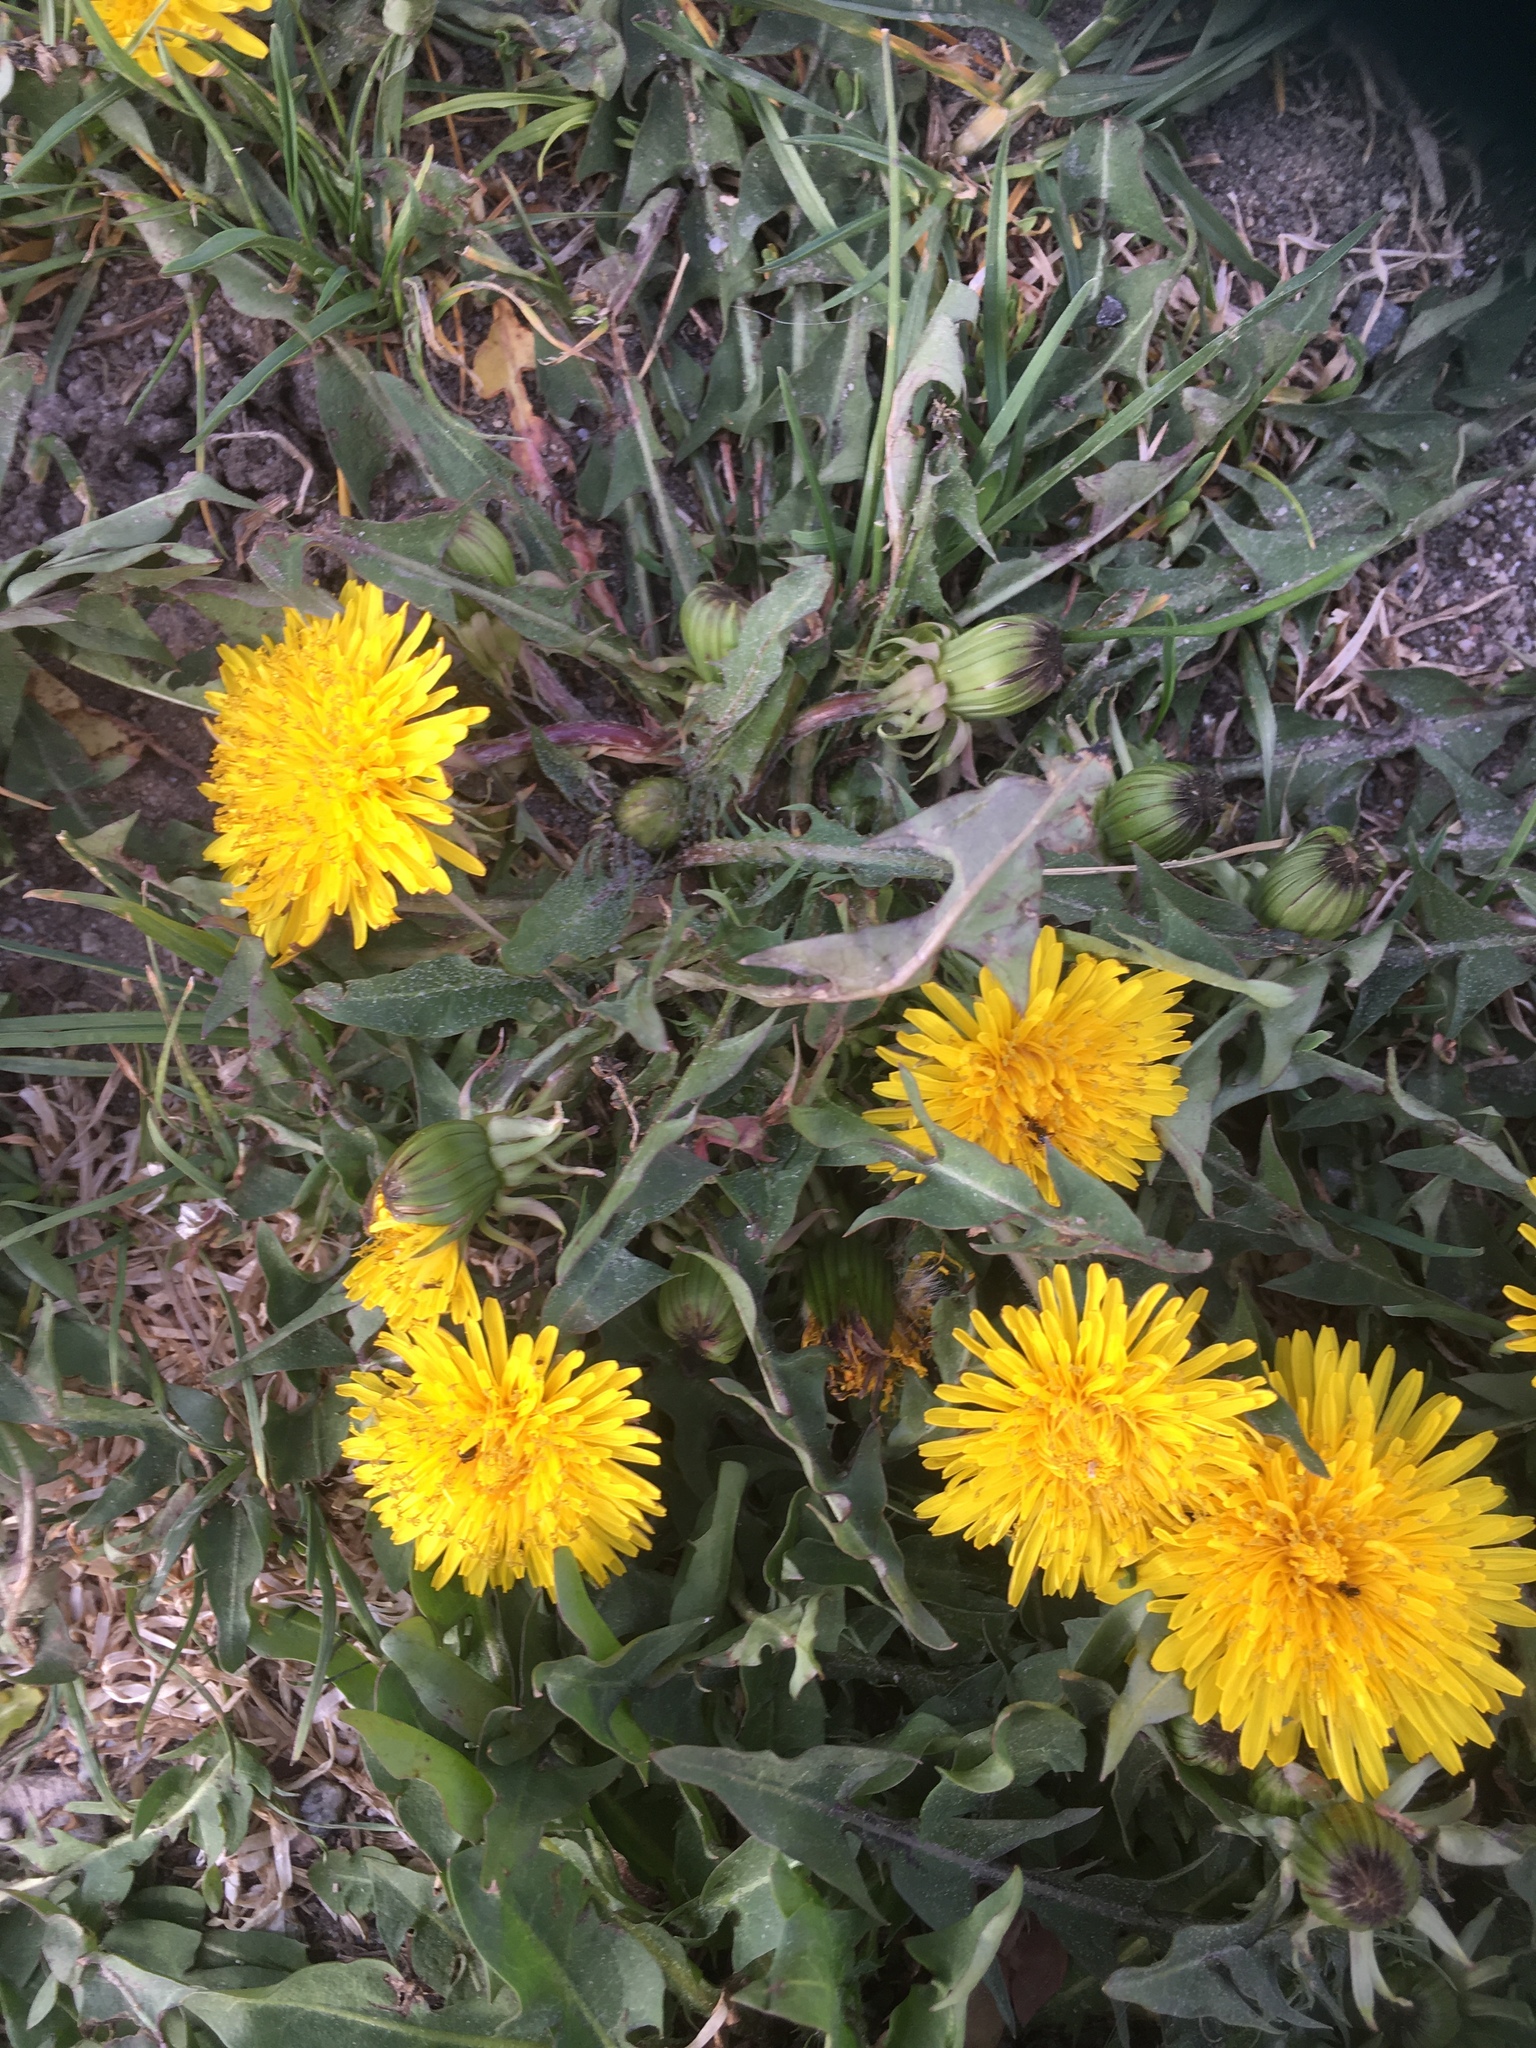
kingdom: Plantae
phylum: Tracheophyta
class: Magnoliopsida
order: Asterales
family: Asteraceae
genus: Taraxacum
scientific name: Taraxacum officinale
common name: Common dandelion
